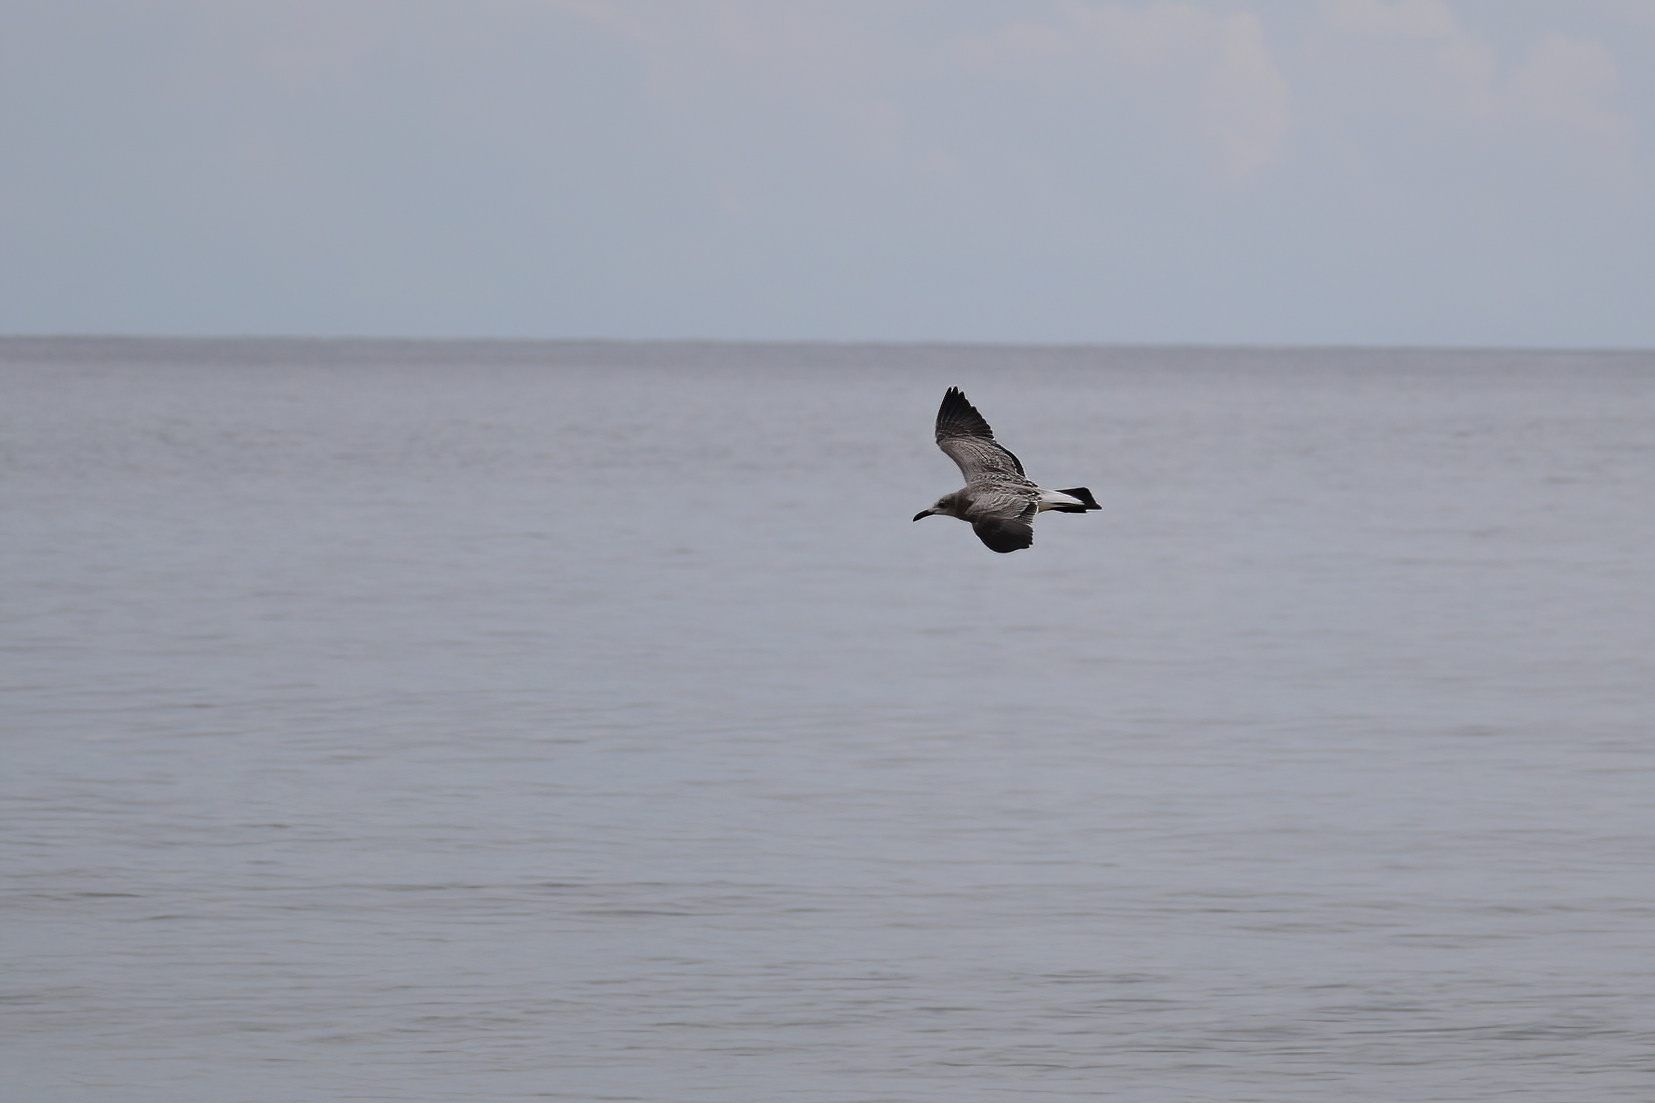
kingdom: Animalia
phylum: Chordata
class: Aves
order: Charadriiformes
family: Laridae
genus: Leucophaeus
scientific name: Leucophaeus atricilla
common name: Laughing gull
